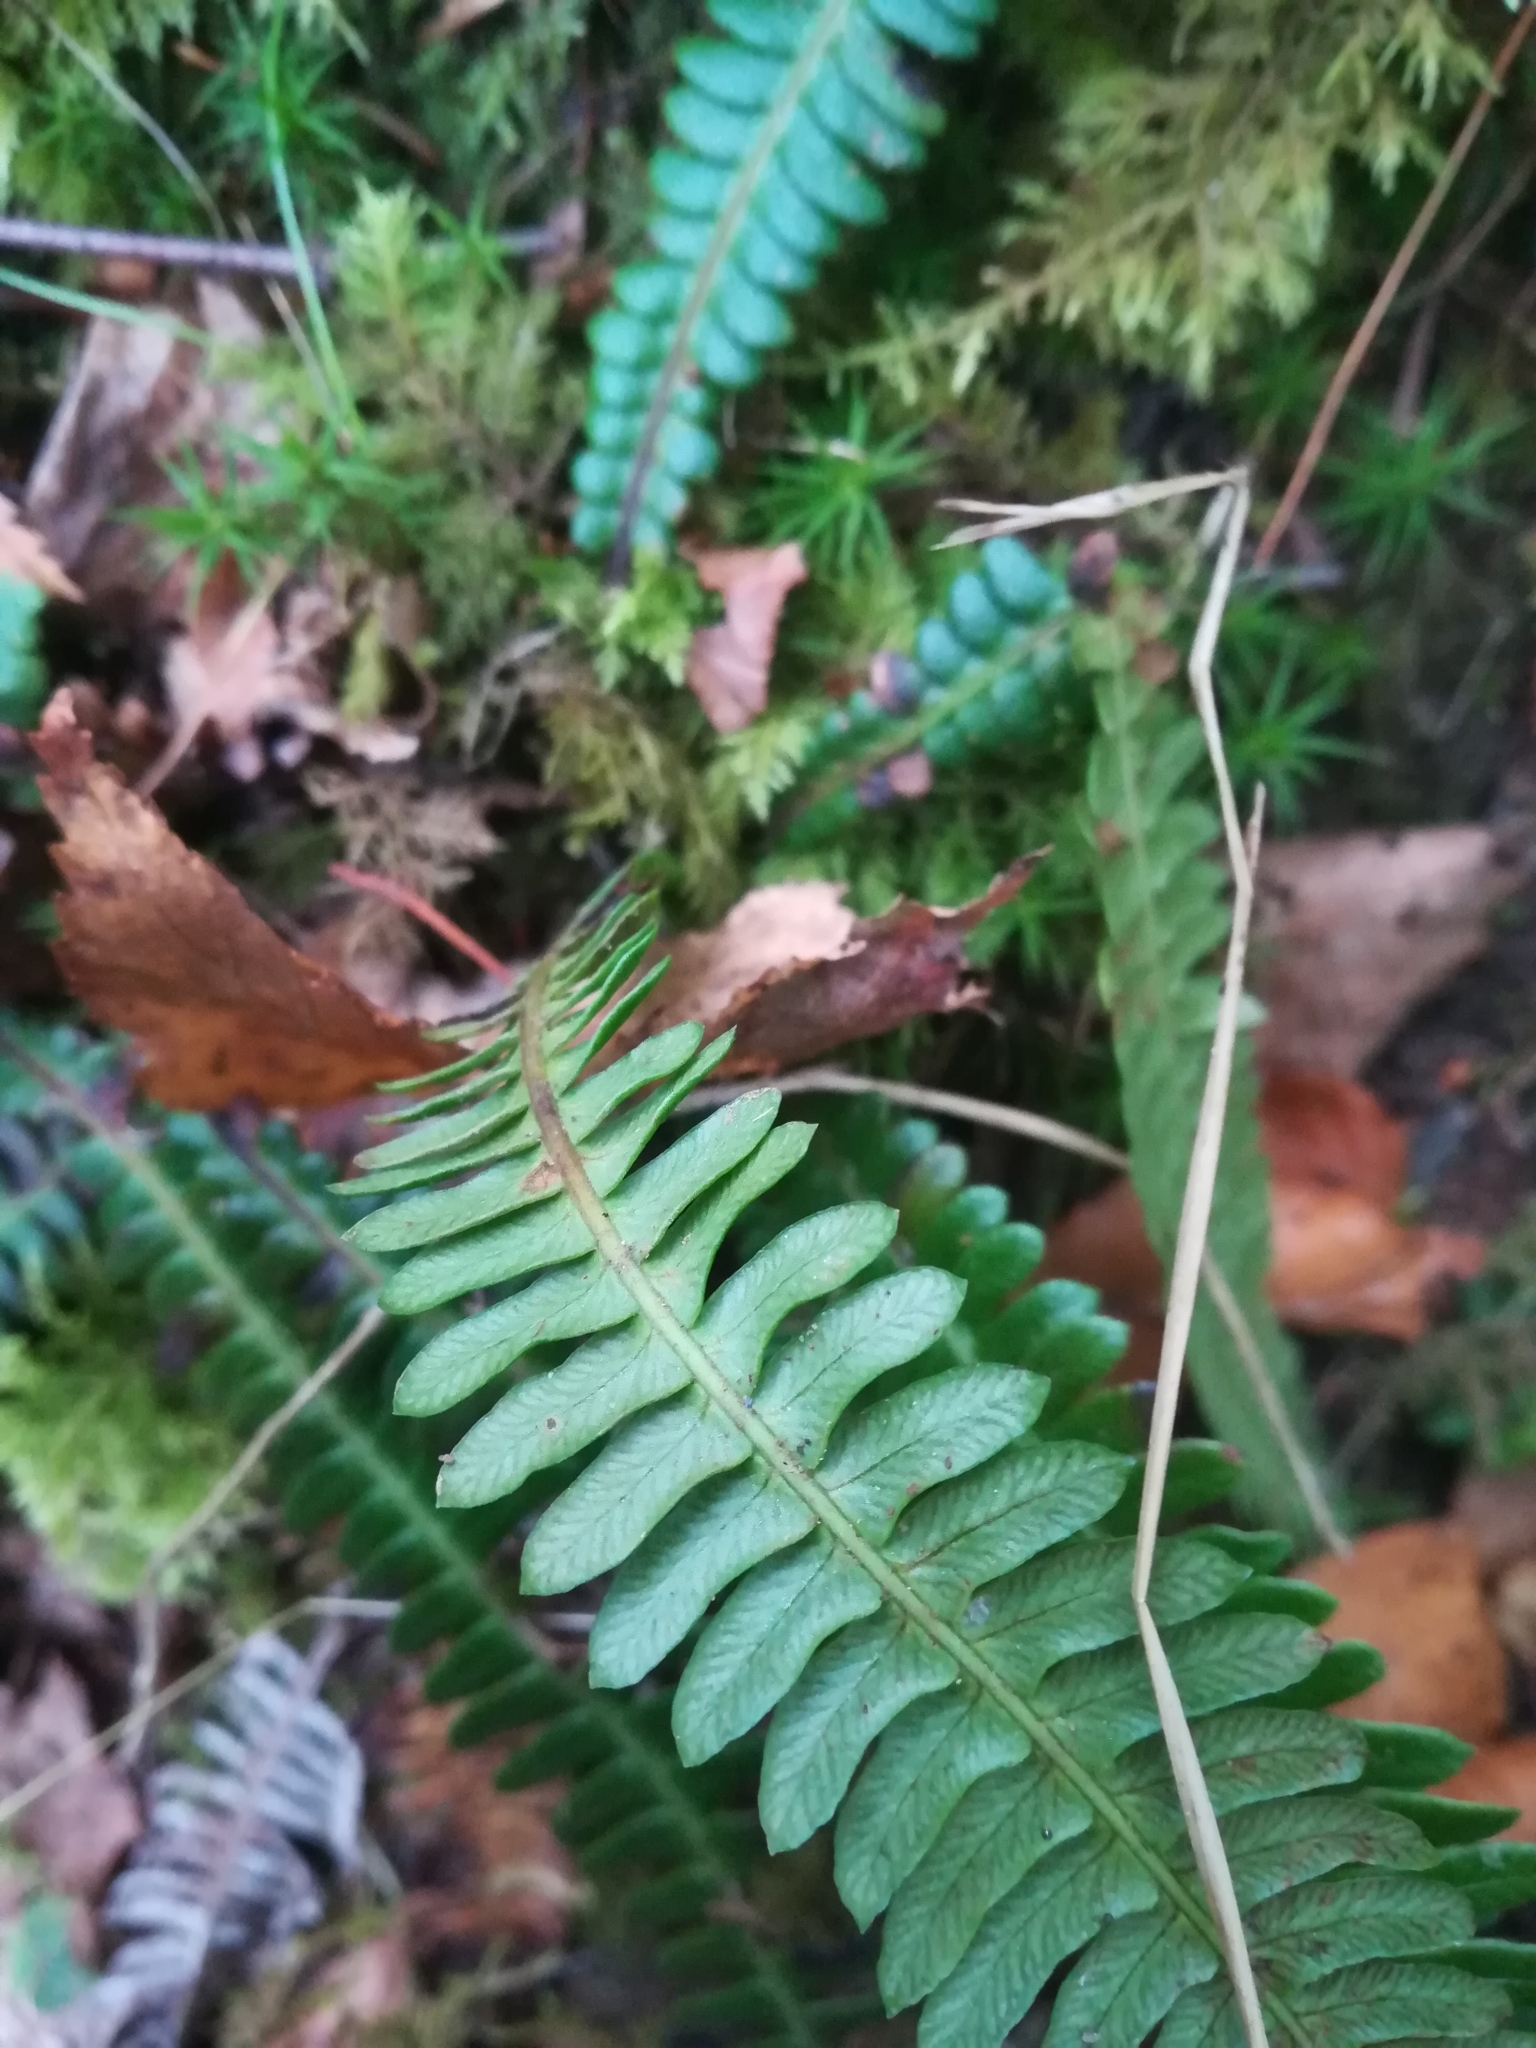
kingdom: Plantae
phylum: Tracheophyta
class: Polypodiopsida
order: Polypodiales
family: Blechnaceae
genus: Struthiopteris
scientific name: Struthiopteris spicant
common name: Deer fern
